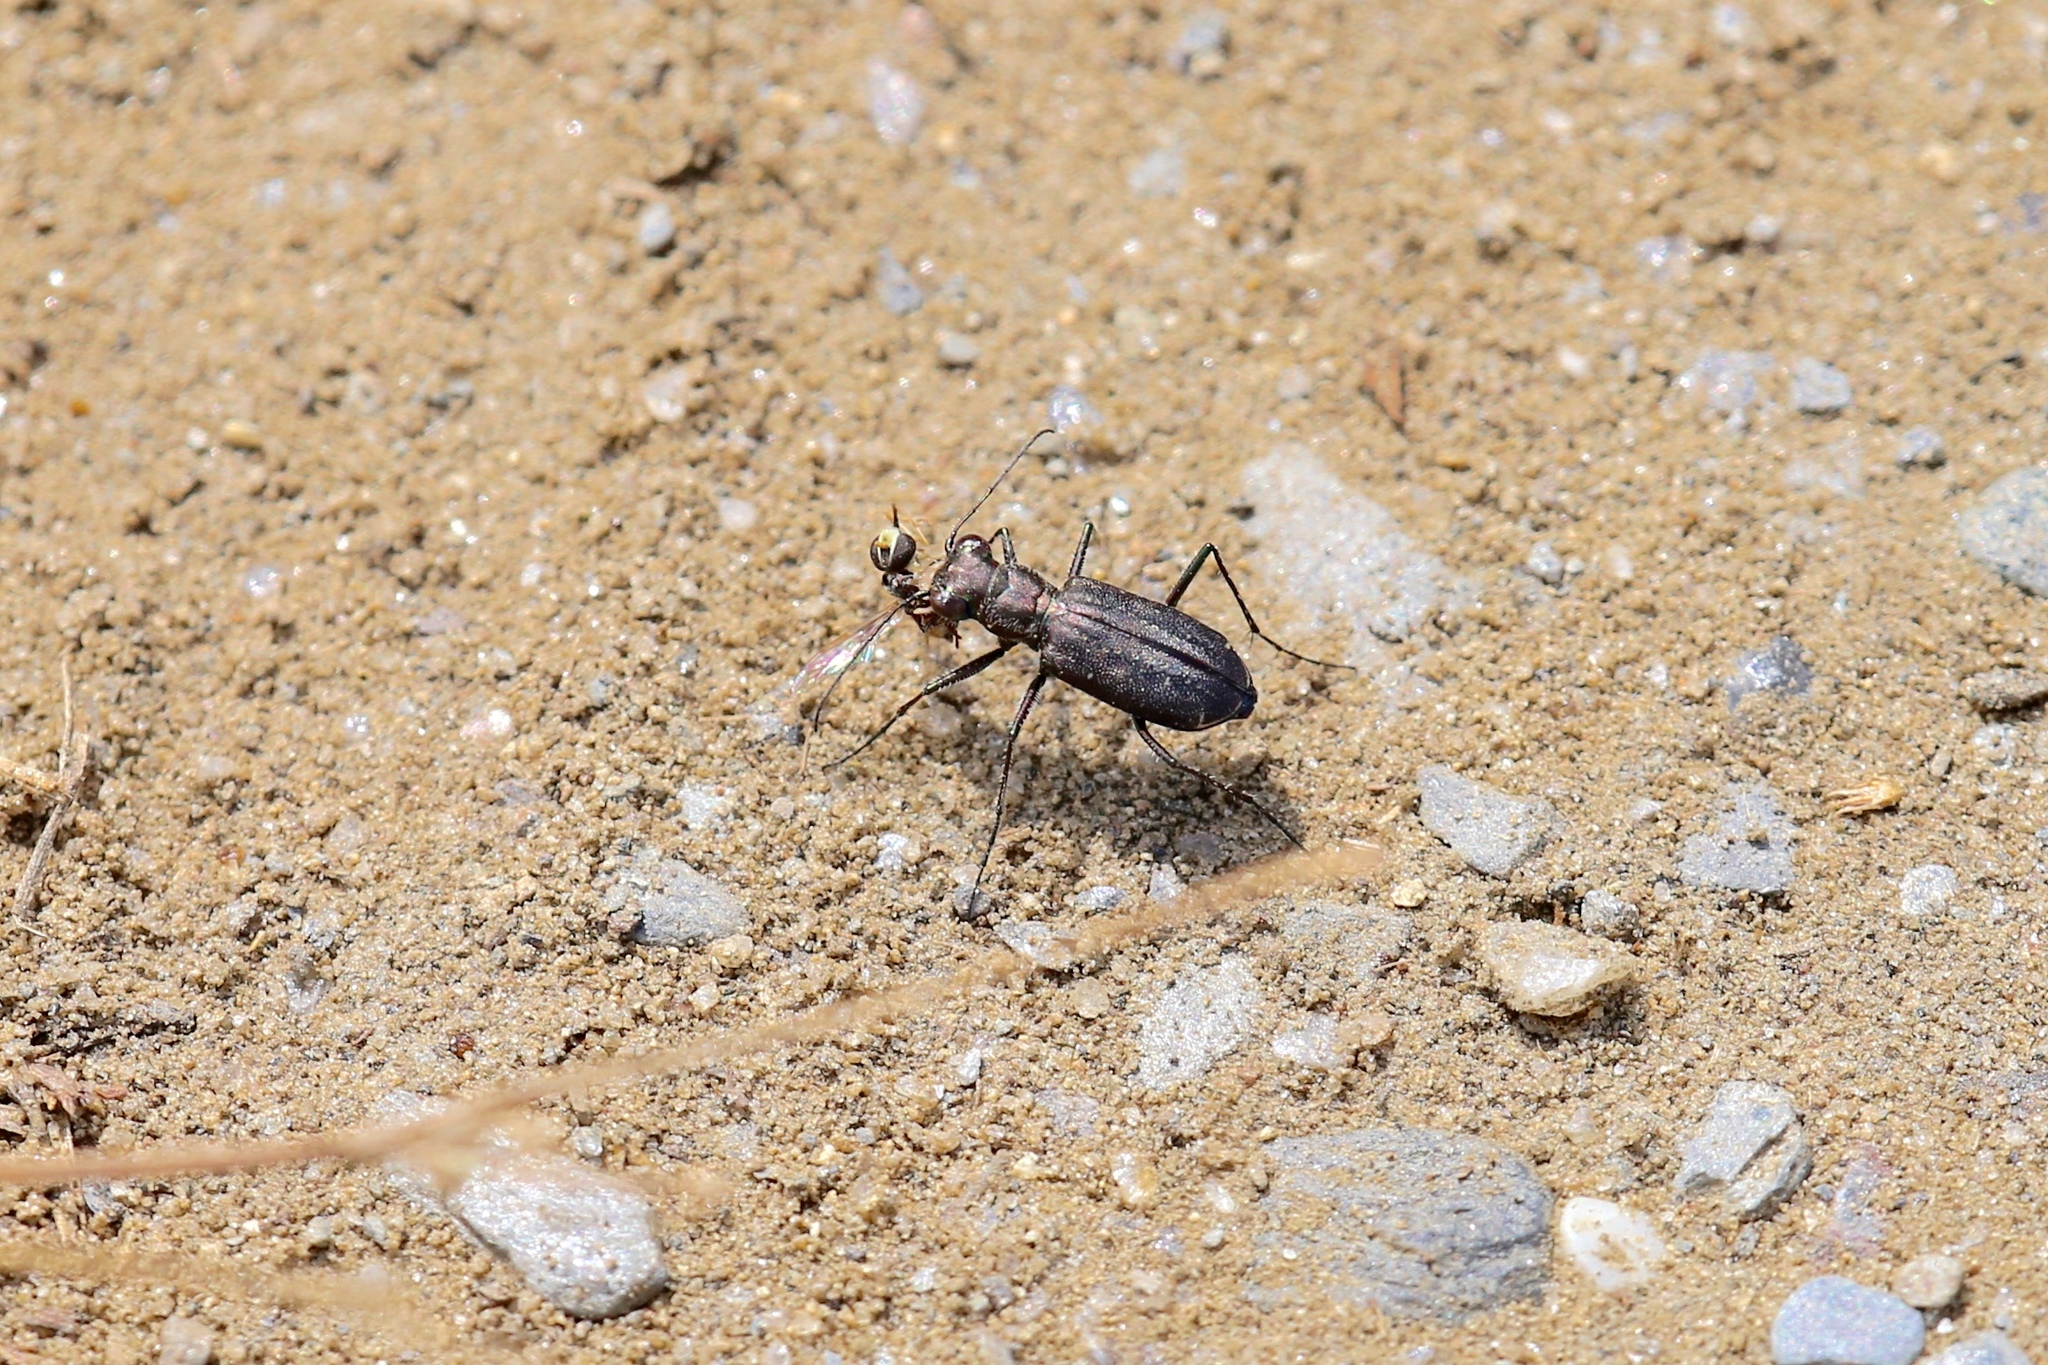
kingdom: Animalia
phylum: Arthropoda
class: Insecta
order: Coleoptera
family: Carabidae
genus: Cicindela
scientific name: Cicindela punctulata
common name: Punctured tiger beetle
